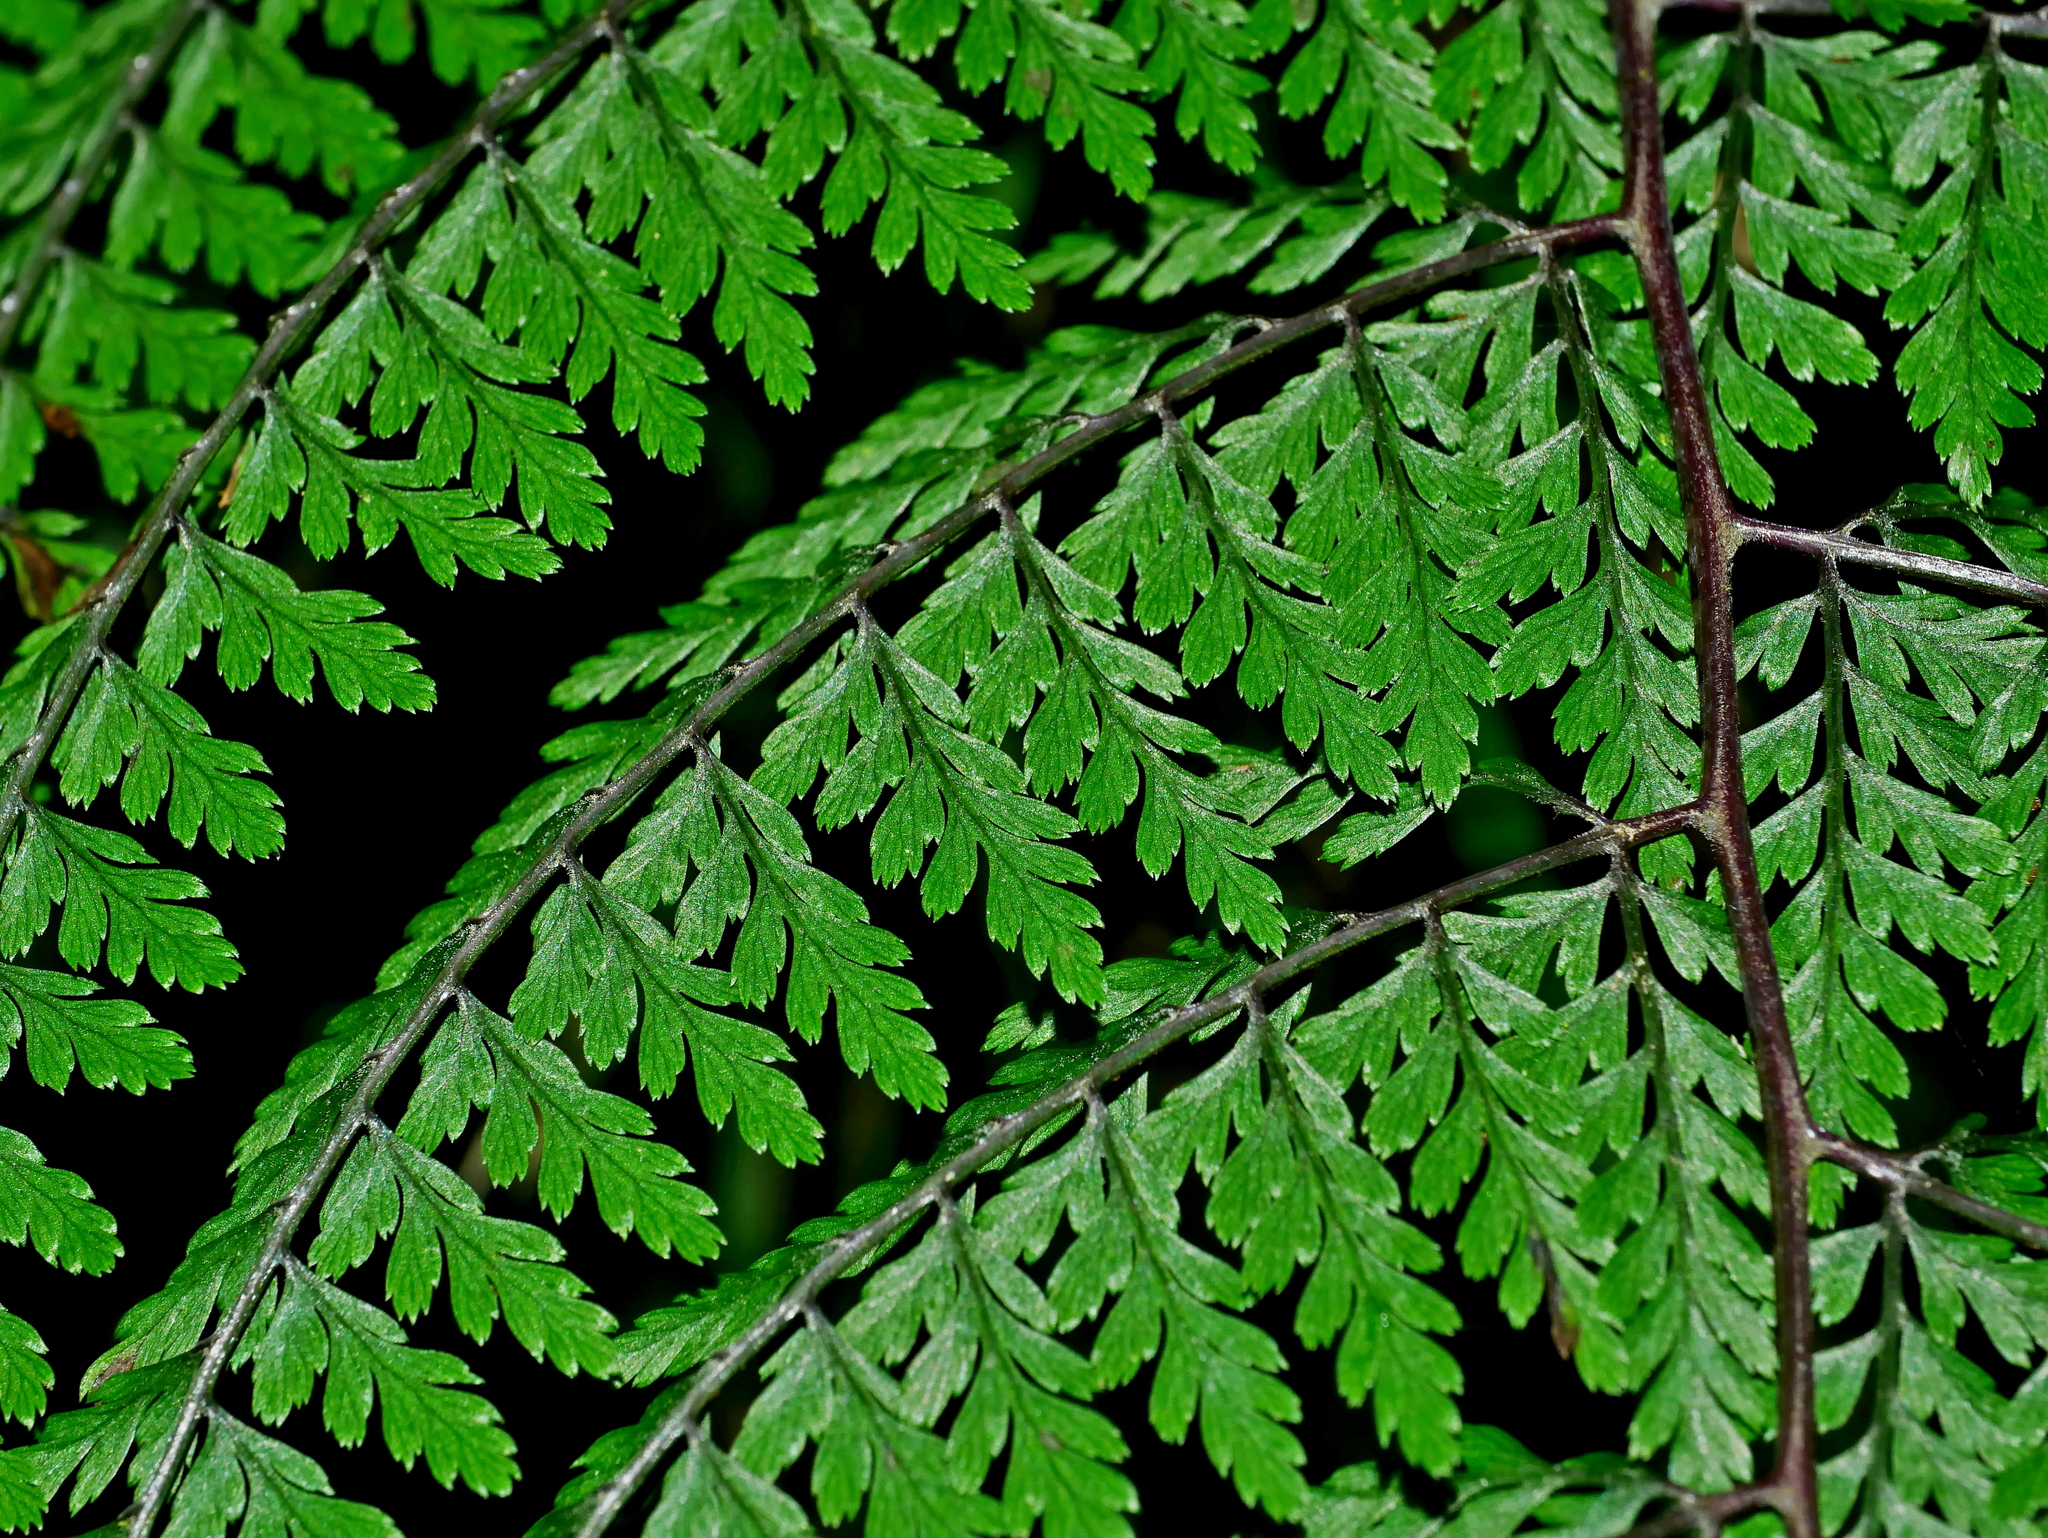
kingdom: Plantae
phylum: Tracheophyta
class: Polypodiopsida
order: Polypodiales
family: Athyriaceae
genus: Athyrium
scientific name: Athyrium tripinnatum
